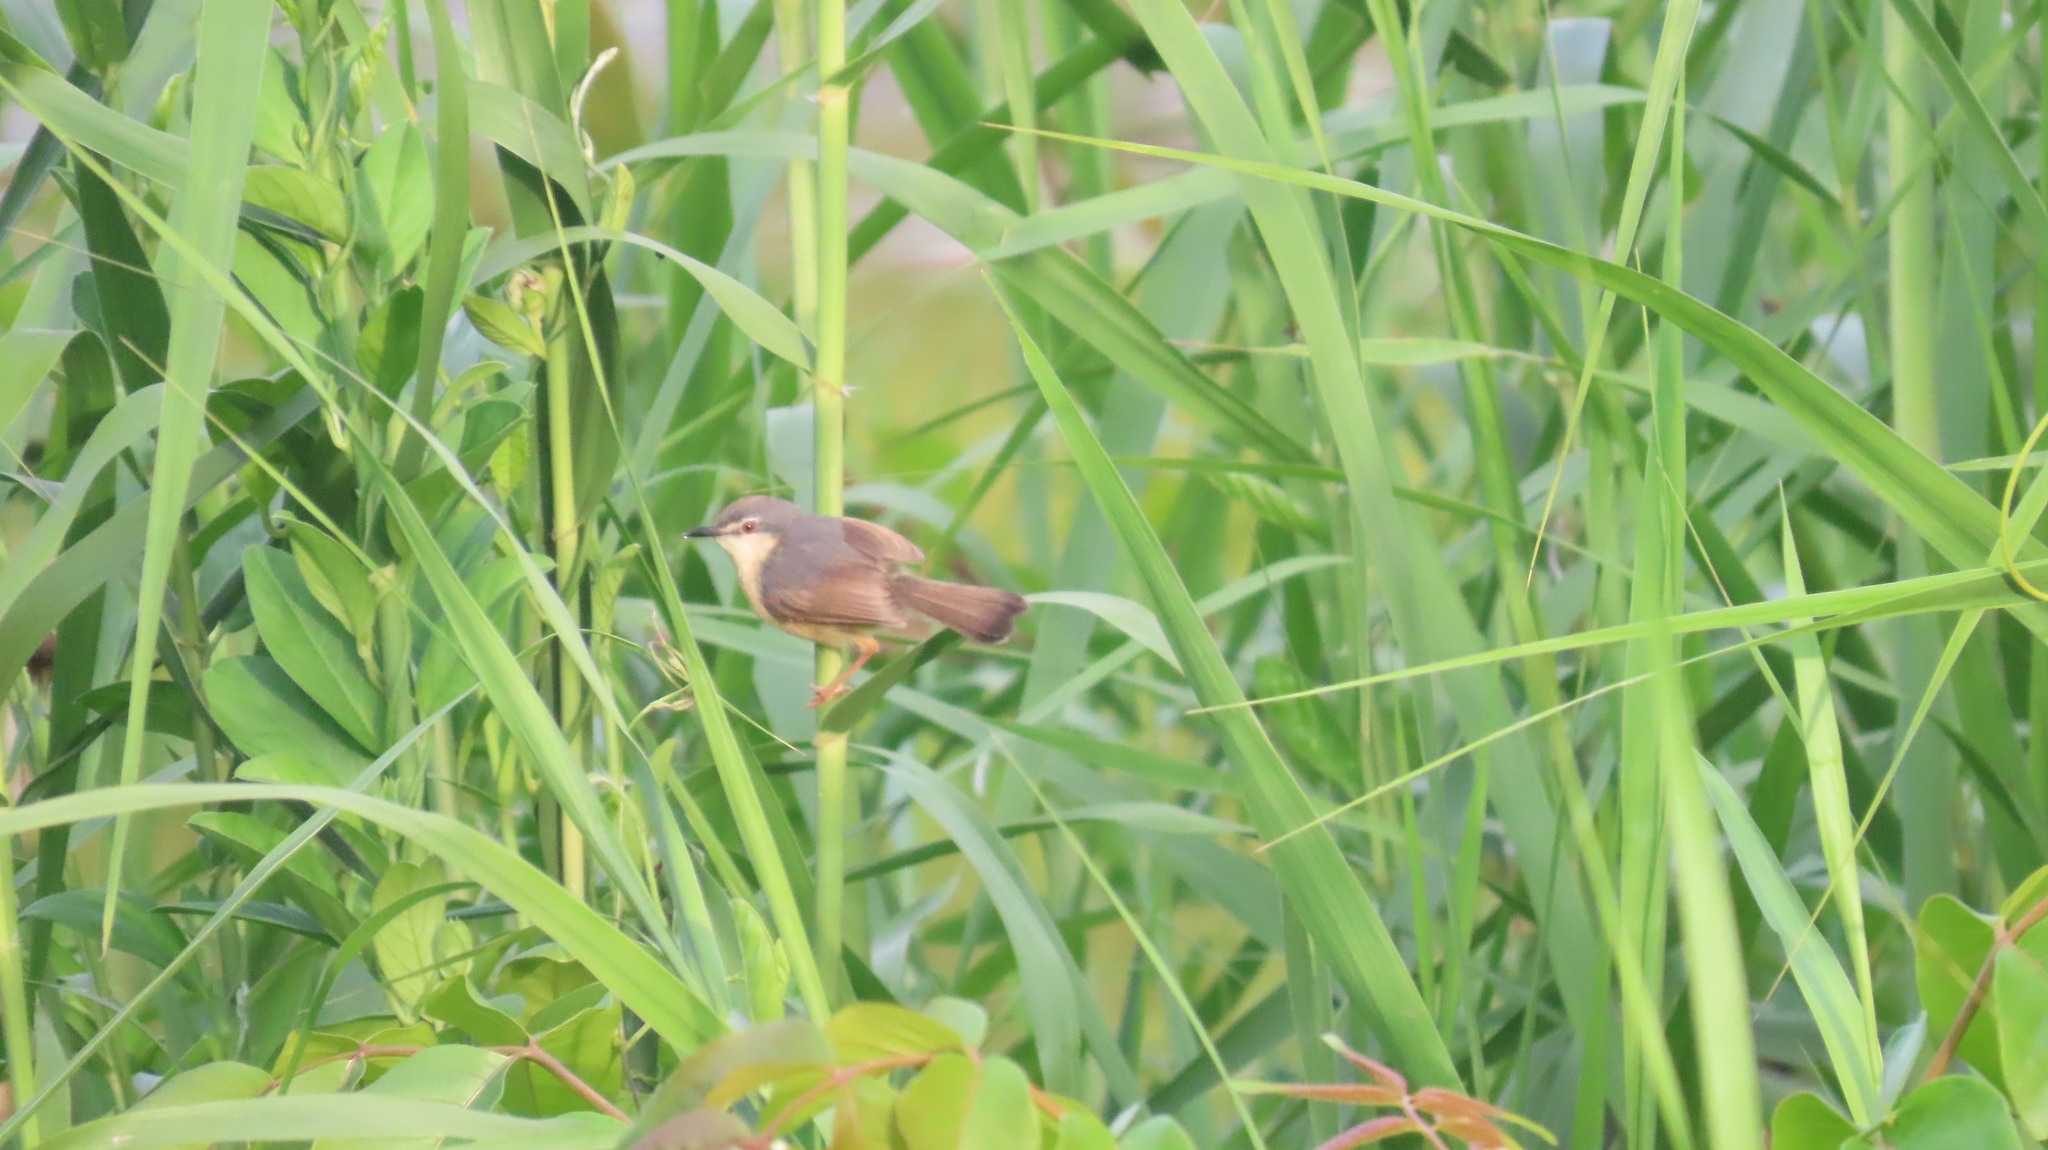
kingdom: Animalia
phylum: Chordata
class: Aves
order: Passeriformes
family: Cisticolidae
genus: Prinia
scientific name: Prinia socialis
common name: Ashy prinia
